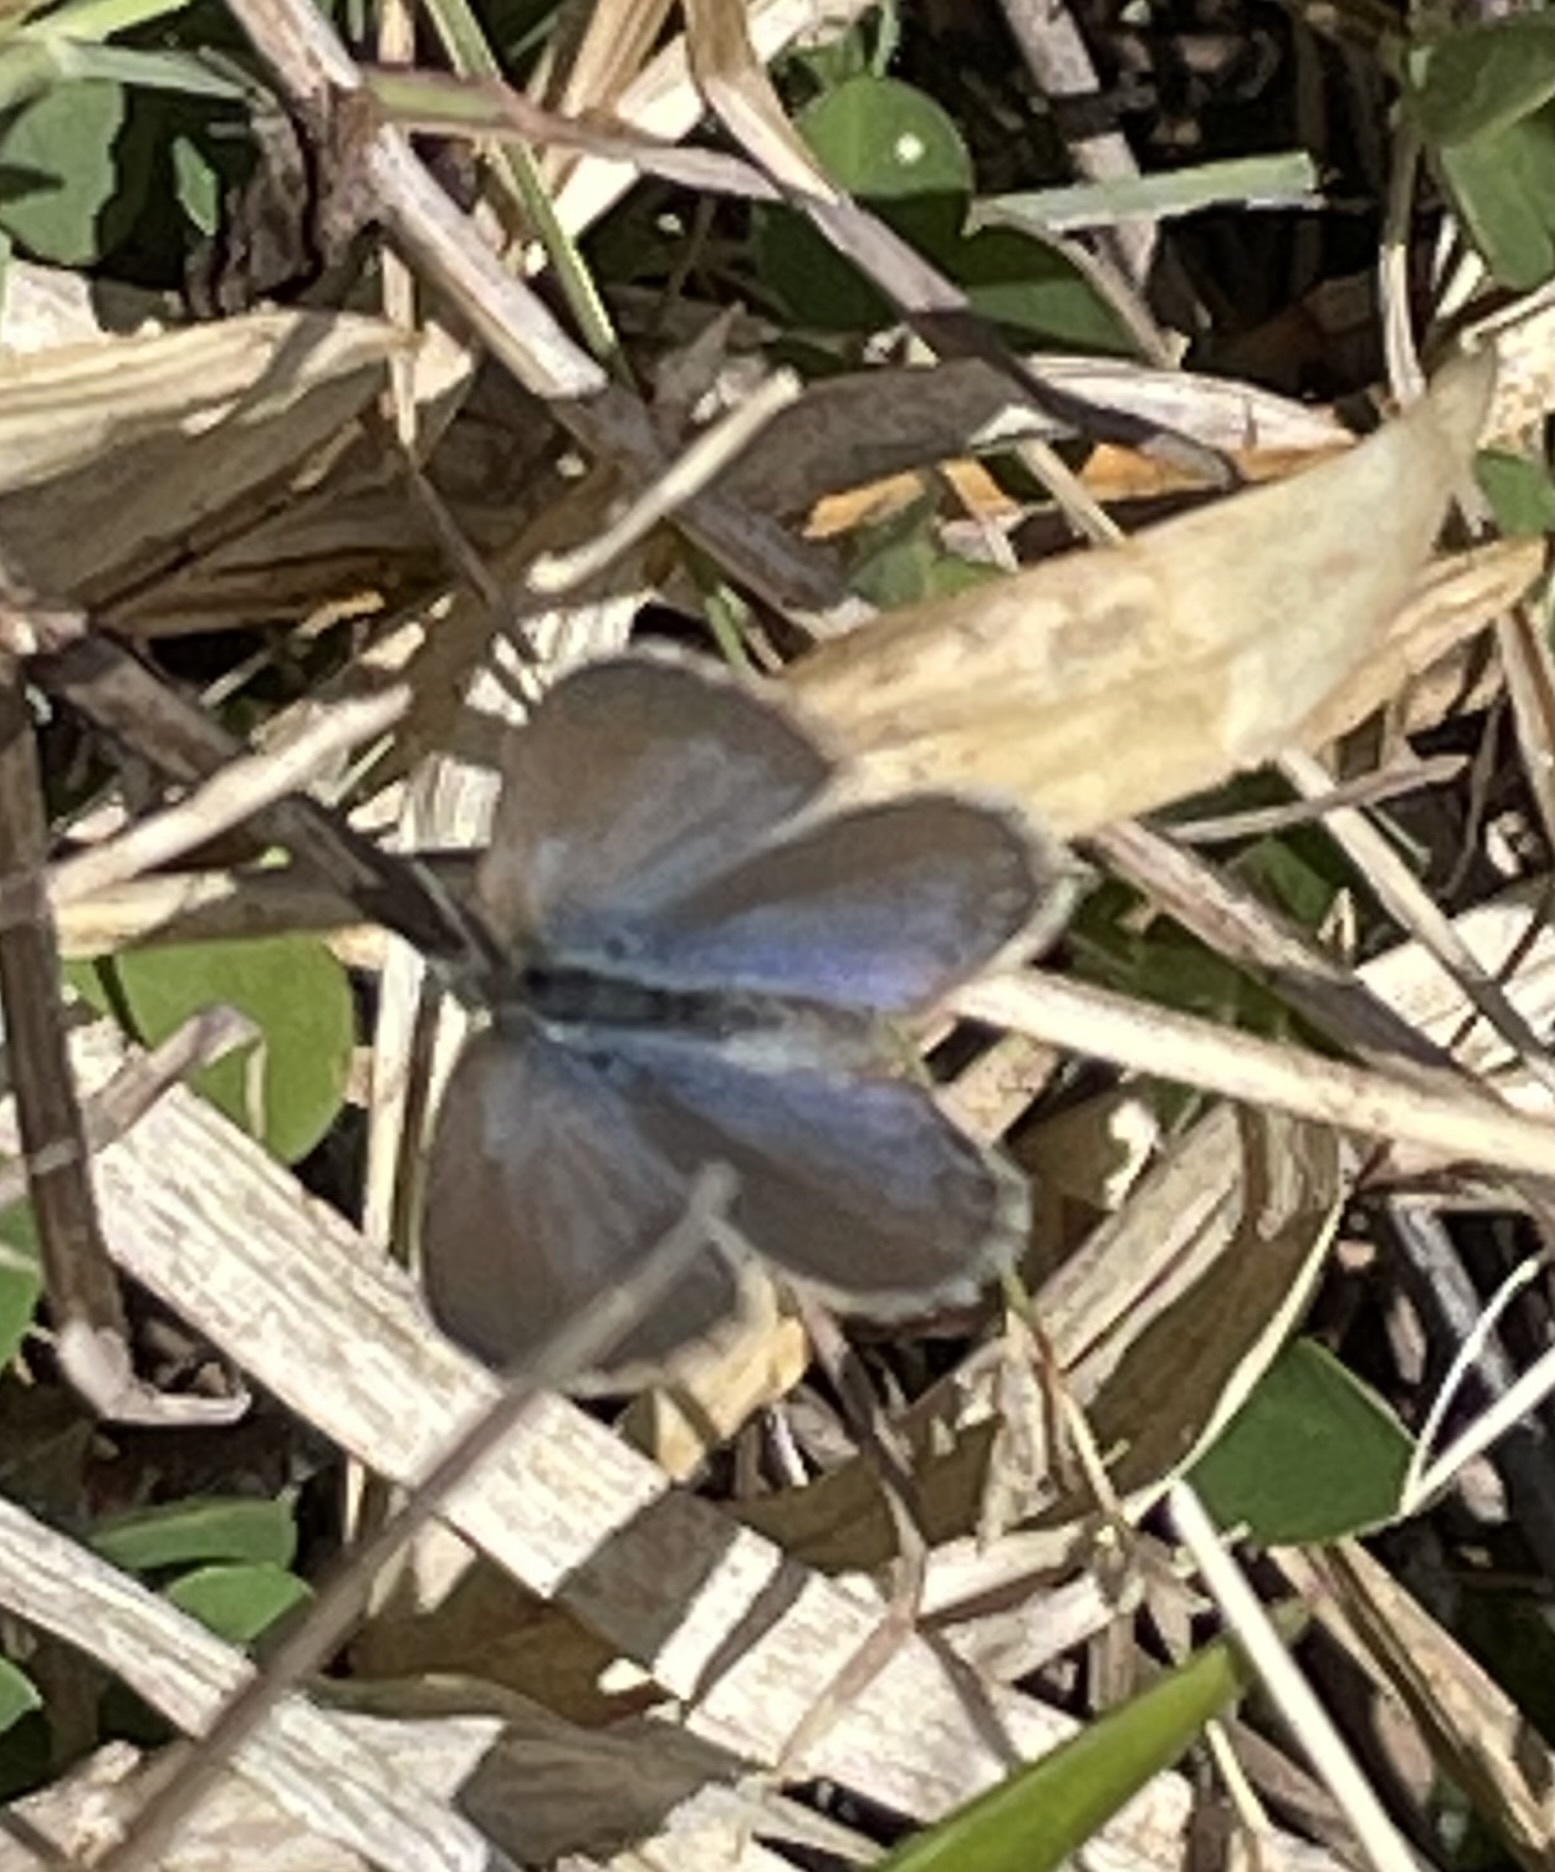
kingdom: Animalia
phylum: Arthropoda
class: Insecta
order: Lepidoptera
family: Lycaenidae
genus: Zizina
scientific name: Zizina labradus
